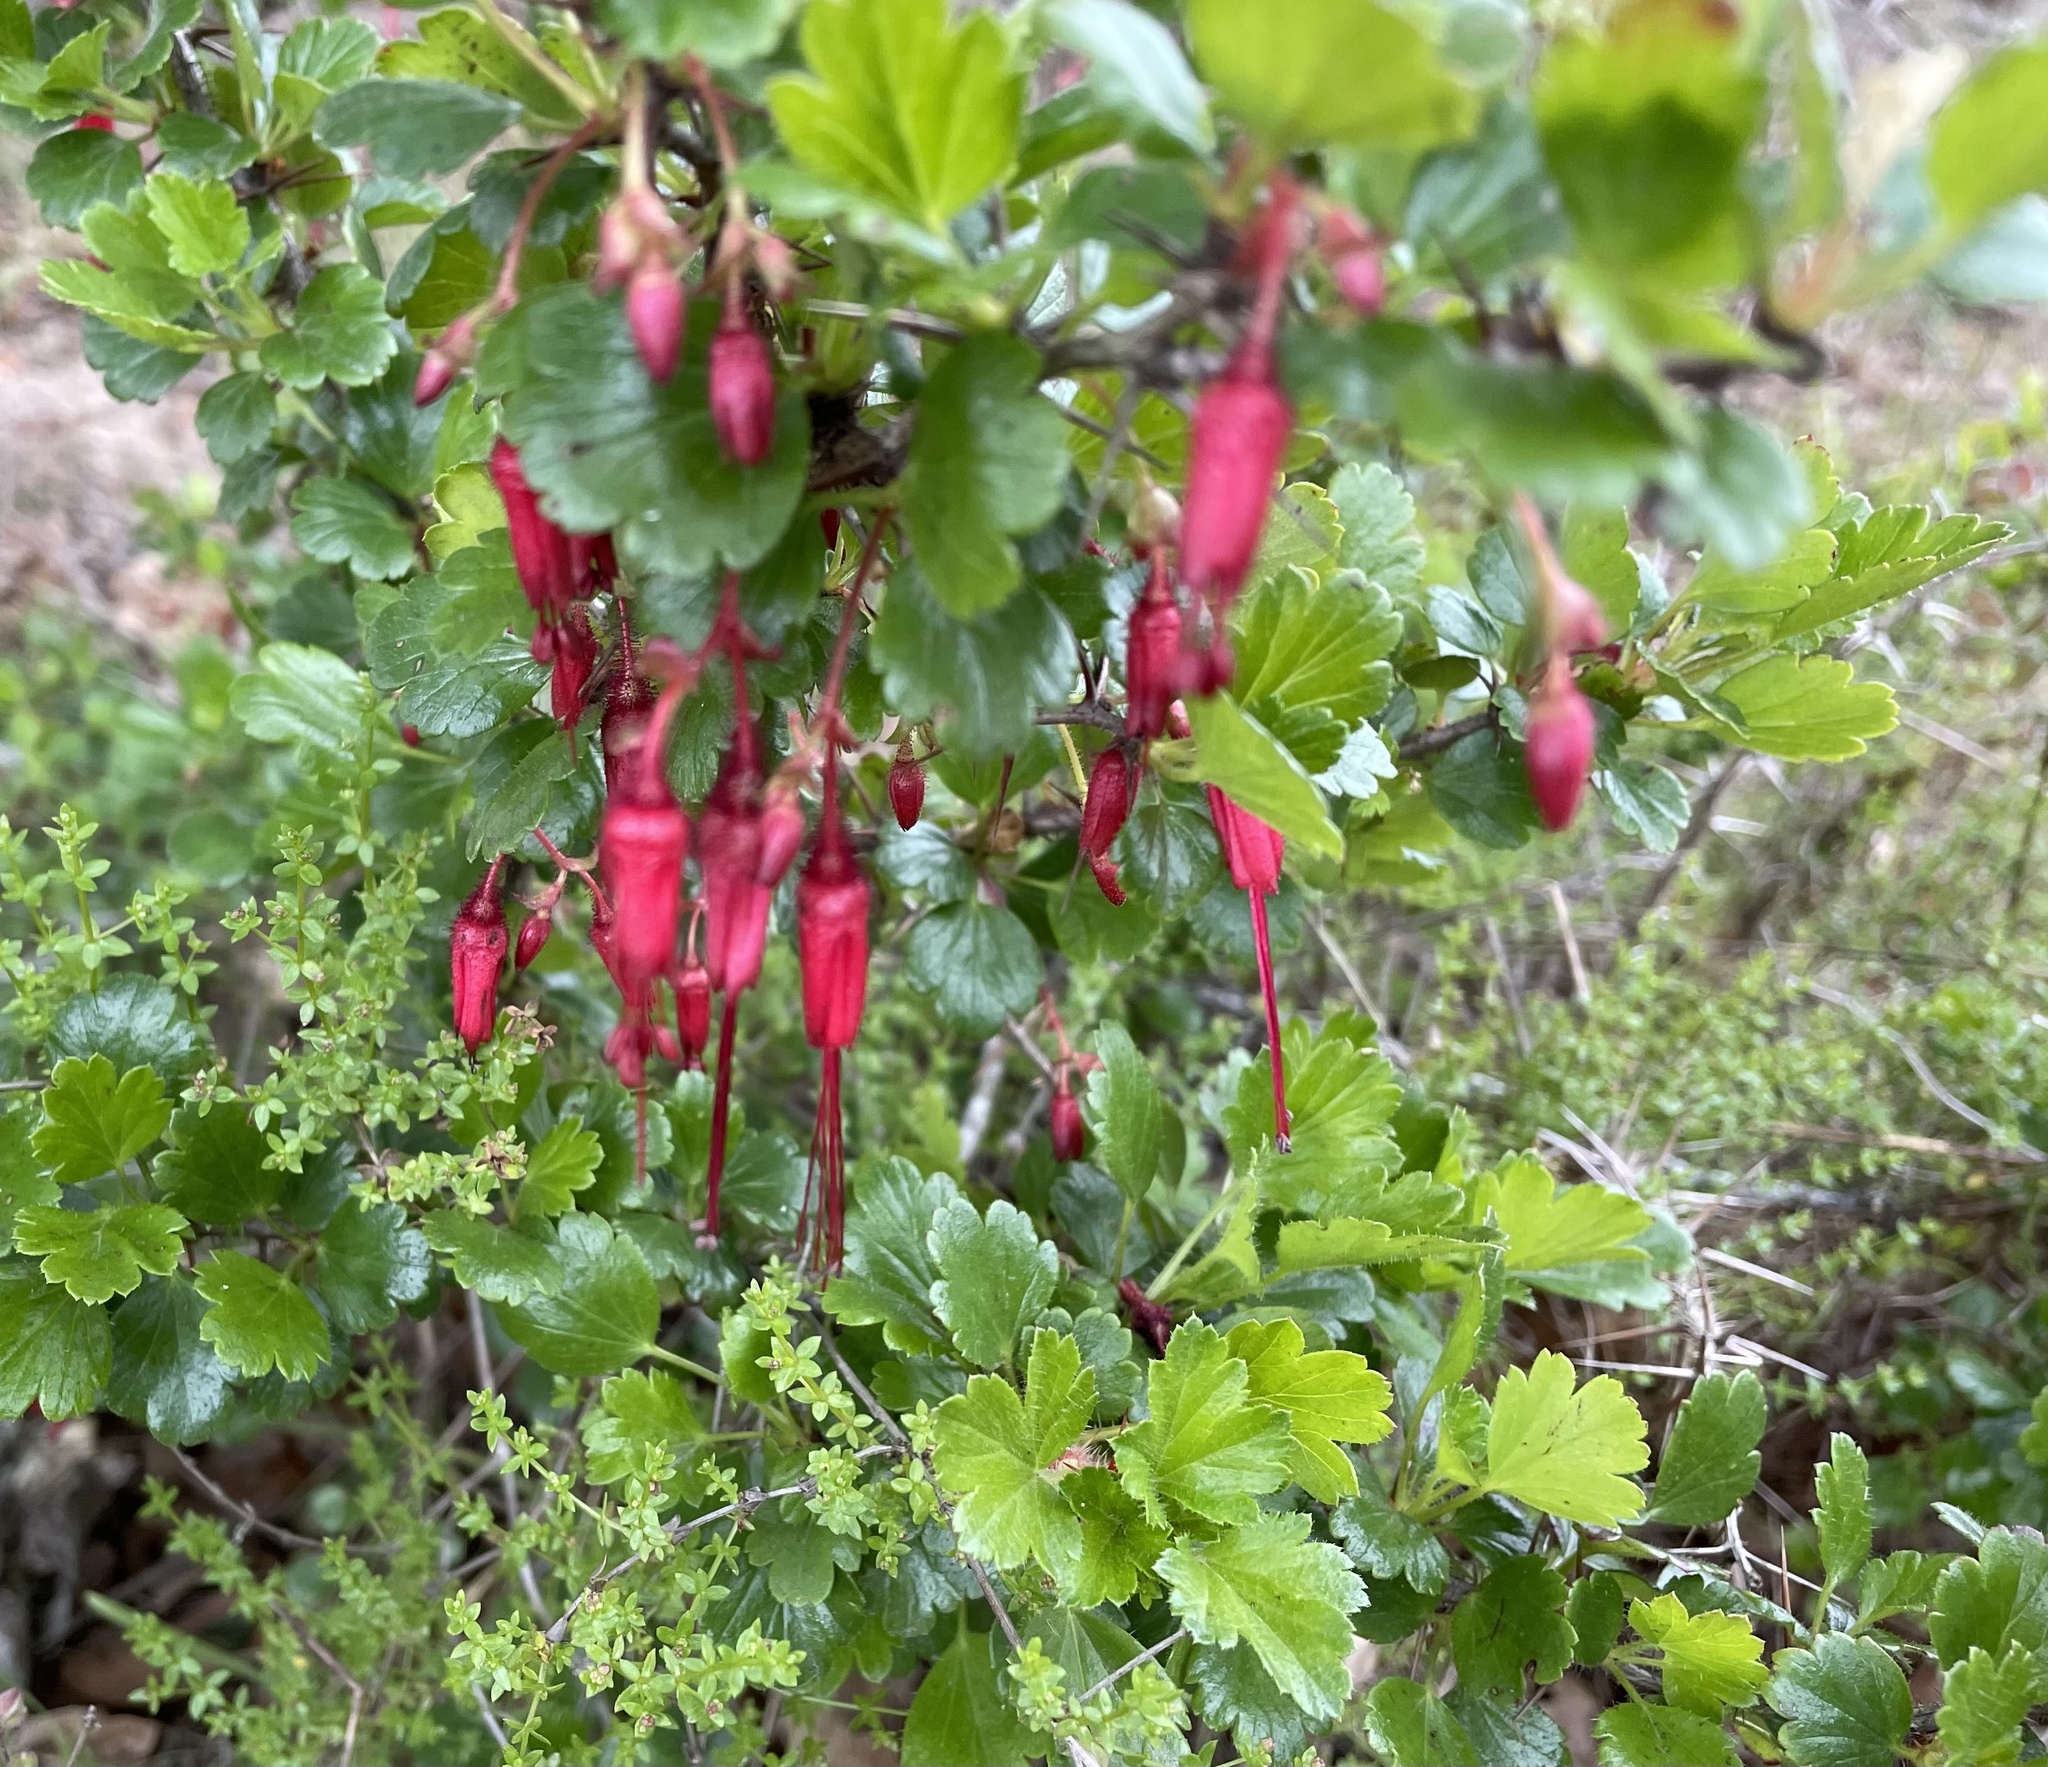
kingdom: Plantae
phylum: Tracheophyta
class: Magnoliopsida
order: Saxifragales
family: Grossulariaceae
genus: Ribes
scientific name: Ribes speciosum
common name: Fuchsia-flower gooseberry
